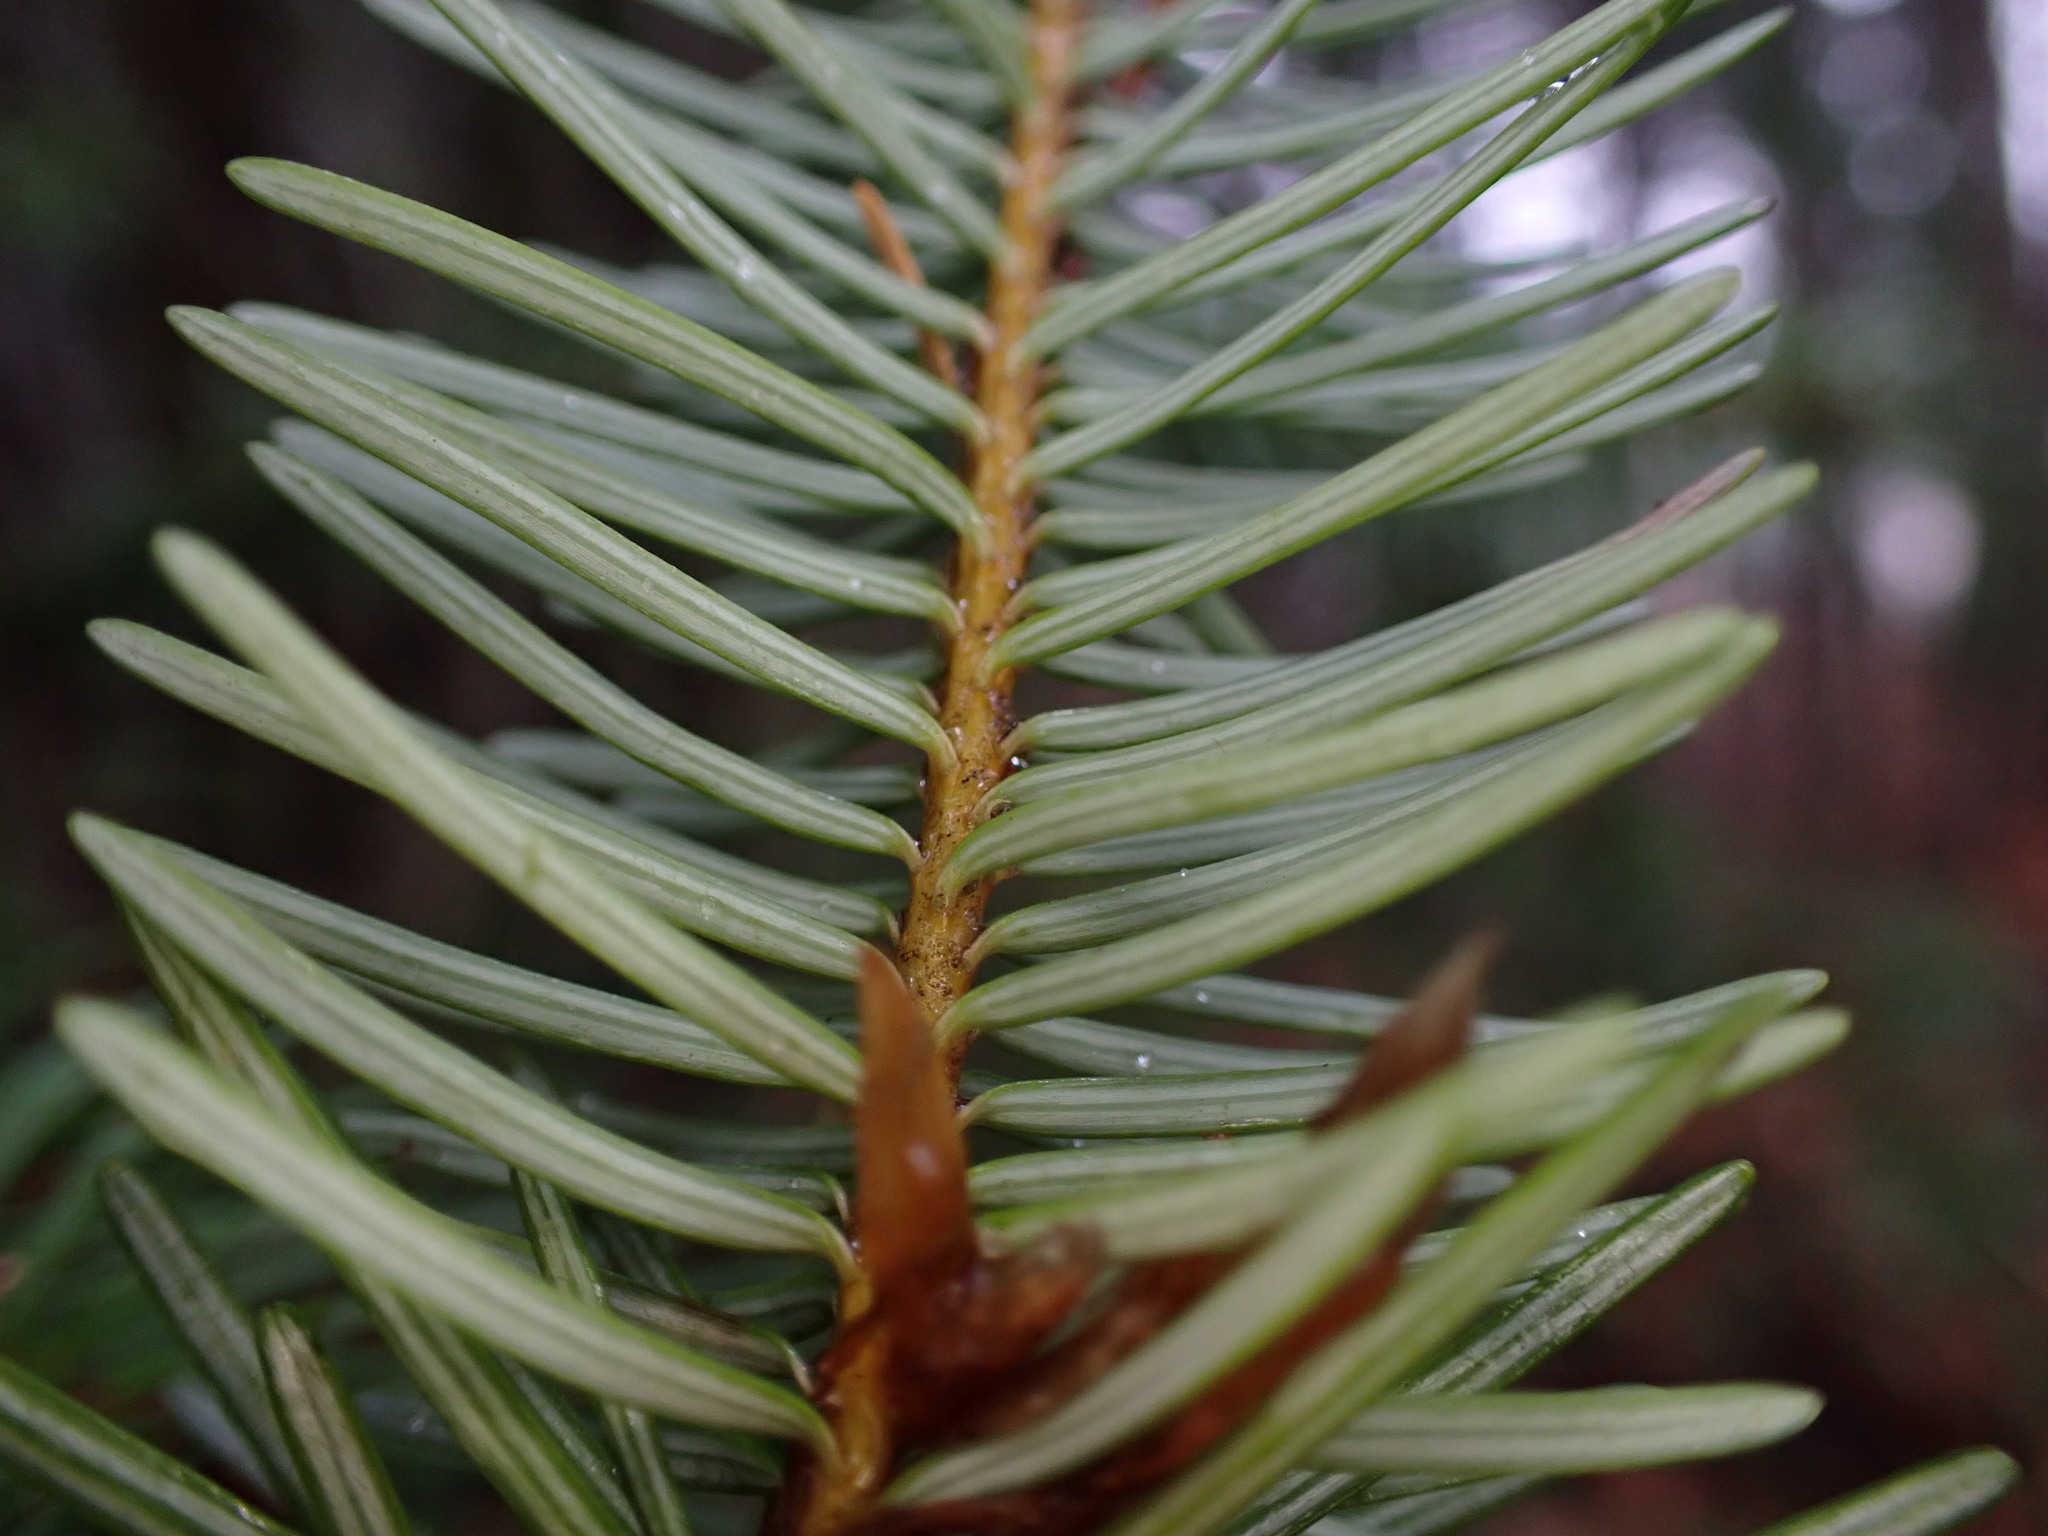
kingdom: Plantae
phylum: Tracheophyta
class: Pinopsida
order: Pinales
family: Pinaceae
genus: Pseudotsuga
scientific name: Pseudotsuga menziesii
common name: Douglas fir
